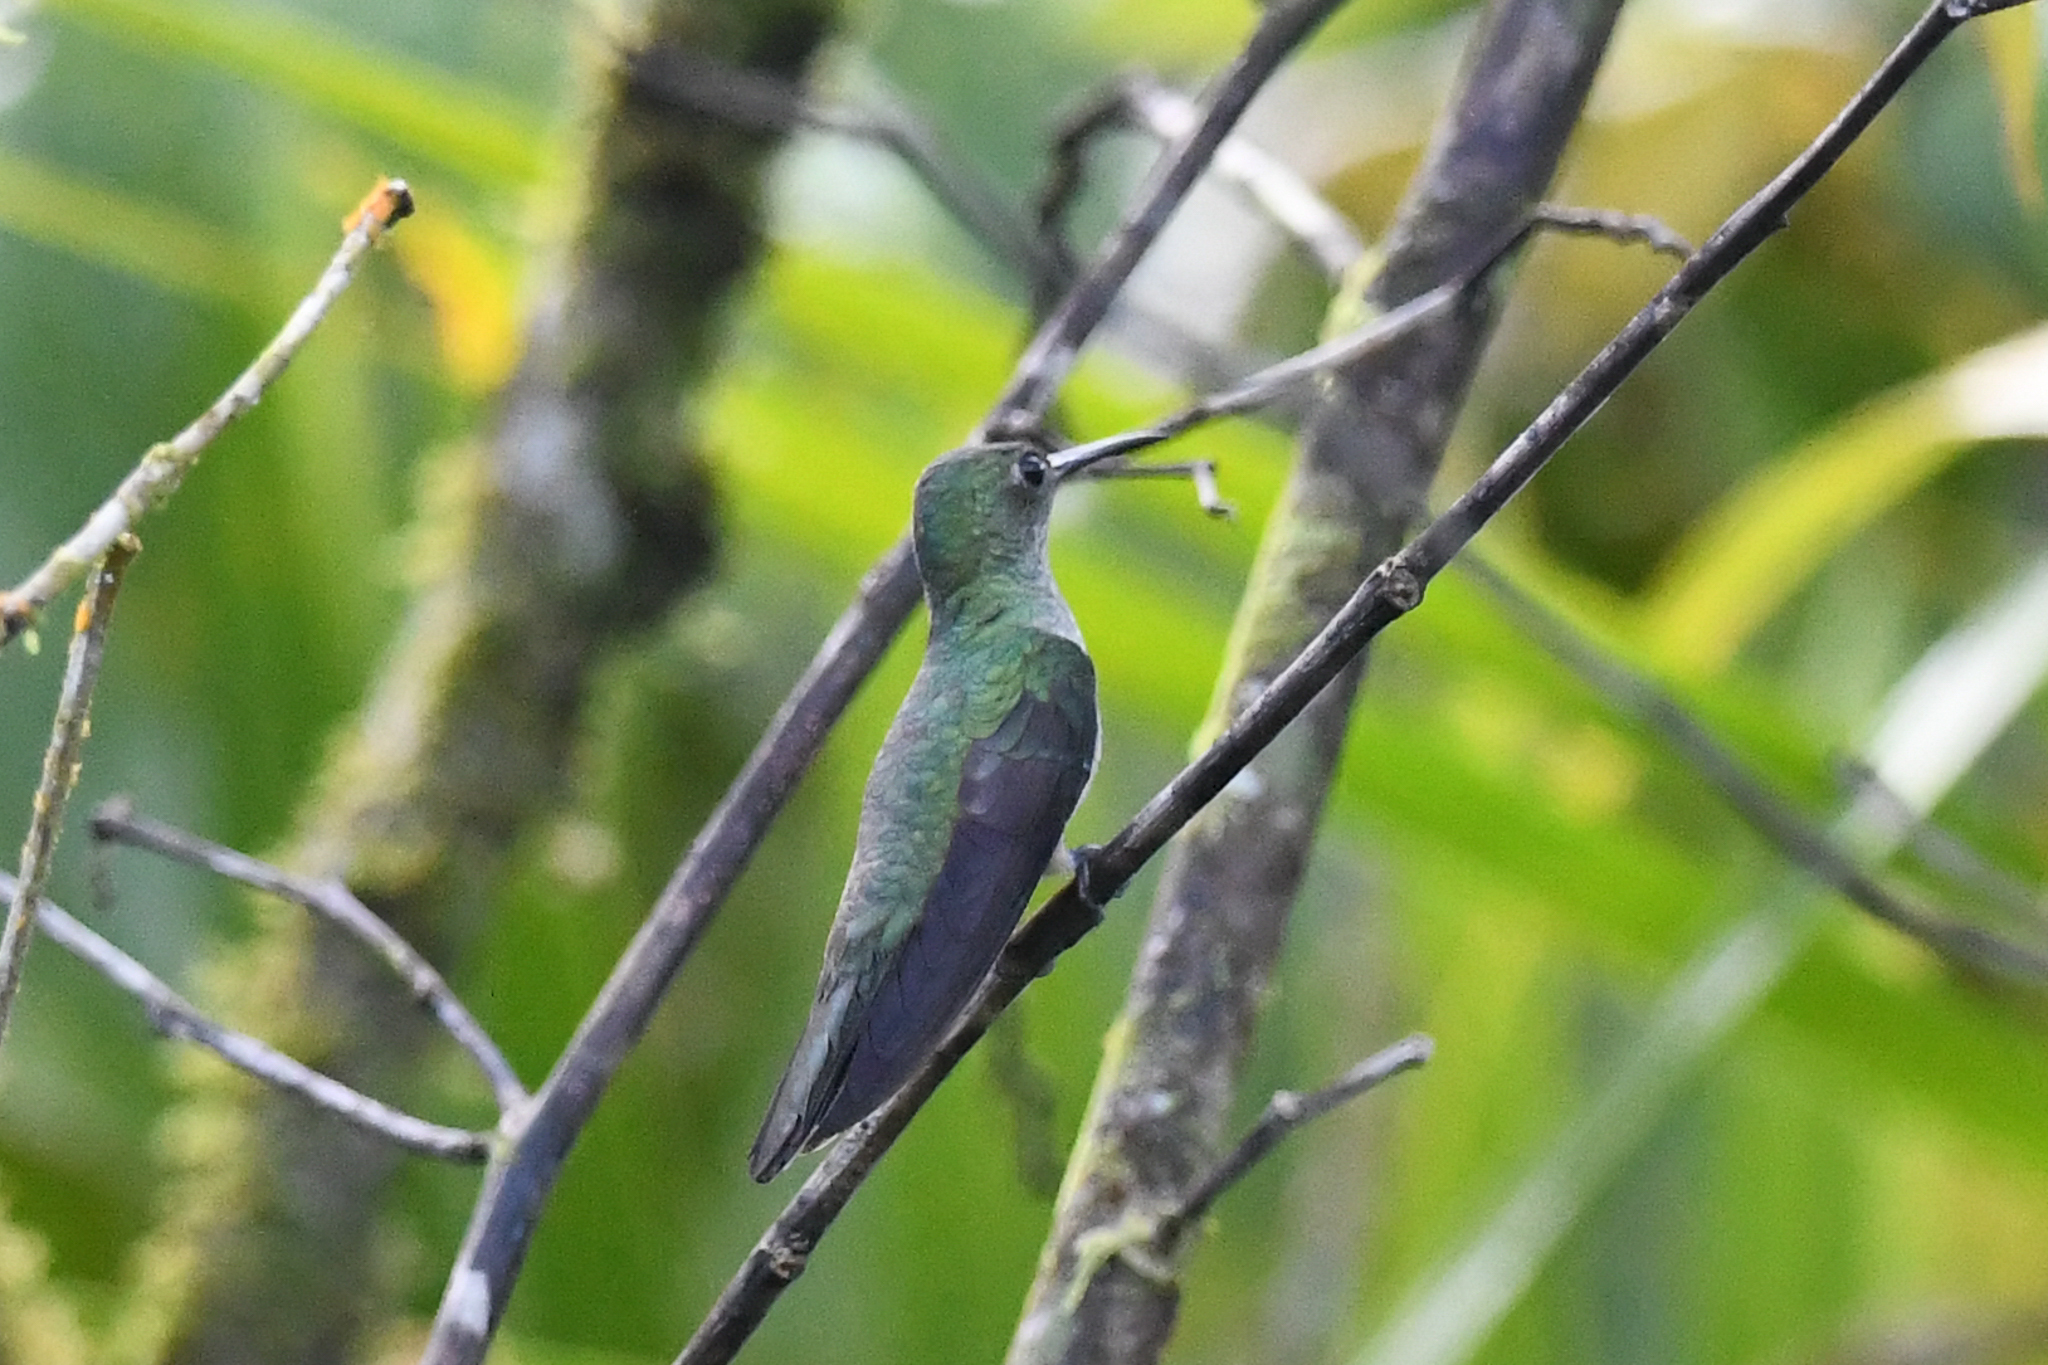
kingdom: Animalia
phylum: Chordata
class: Aves
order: Apodiformes
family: Trochilidae
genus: Phaeochroa
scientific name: Phaeochroa cuvierii
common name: Scaly-breasted hummingbird
